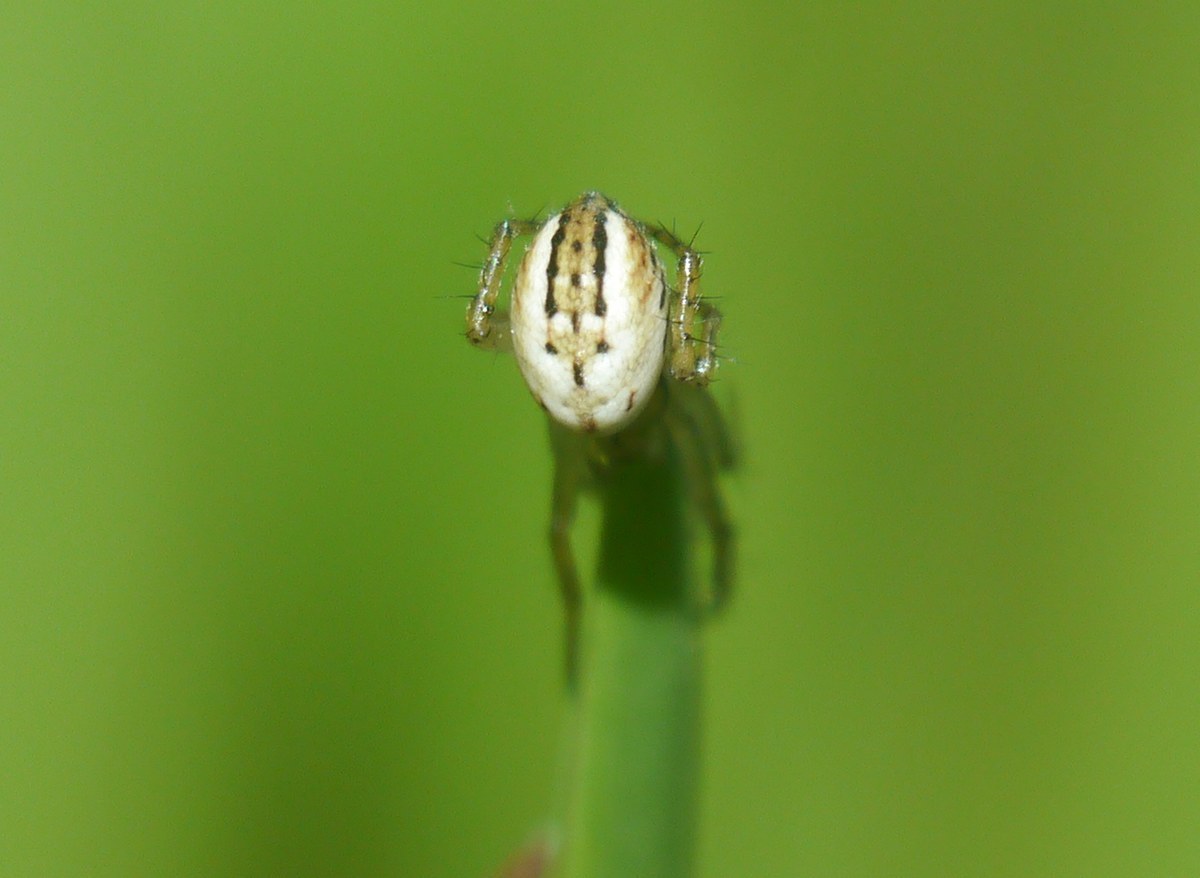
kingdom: Animalia
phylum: Arthropoda
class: Arachnida
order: Araneae
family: Araneidae
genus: Mangora
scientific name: Mangora acalypha
